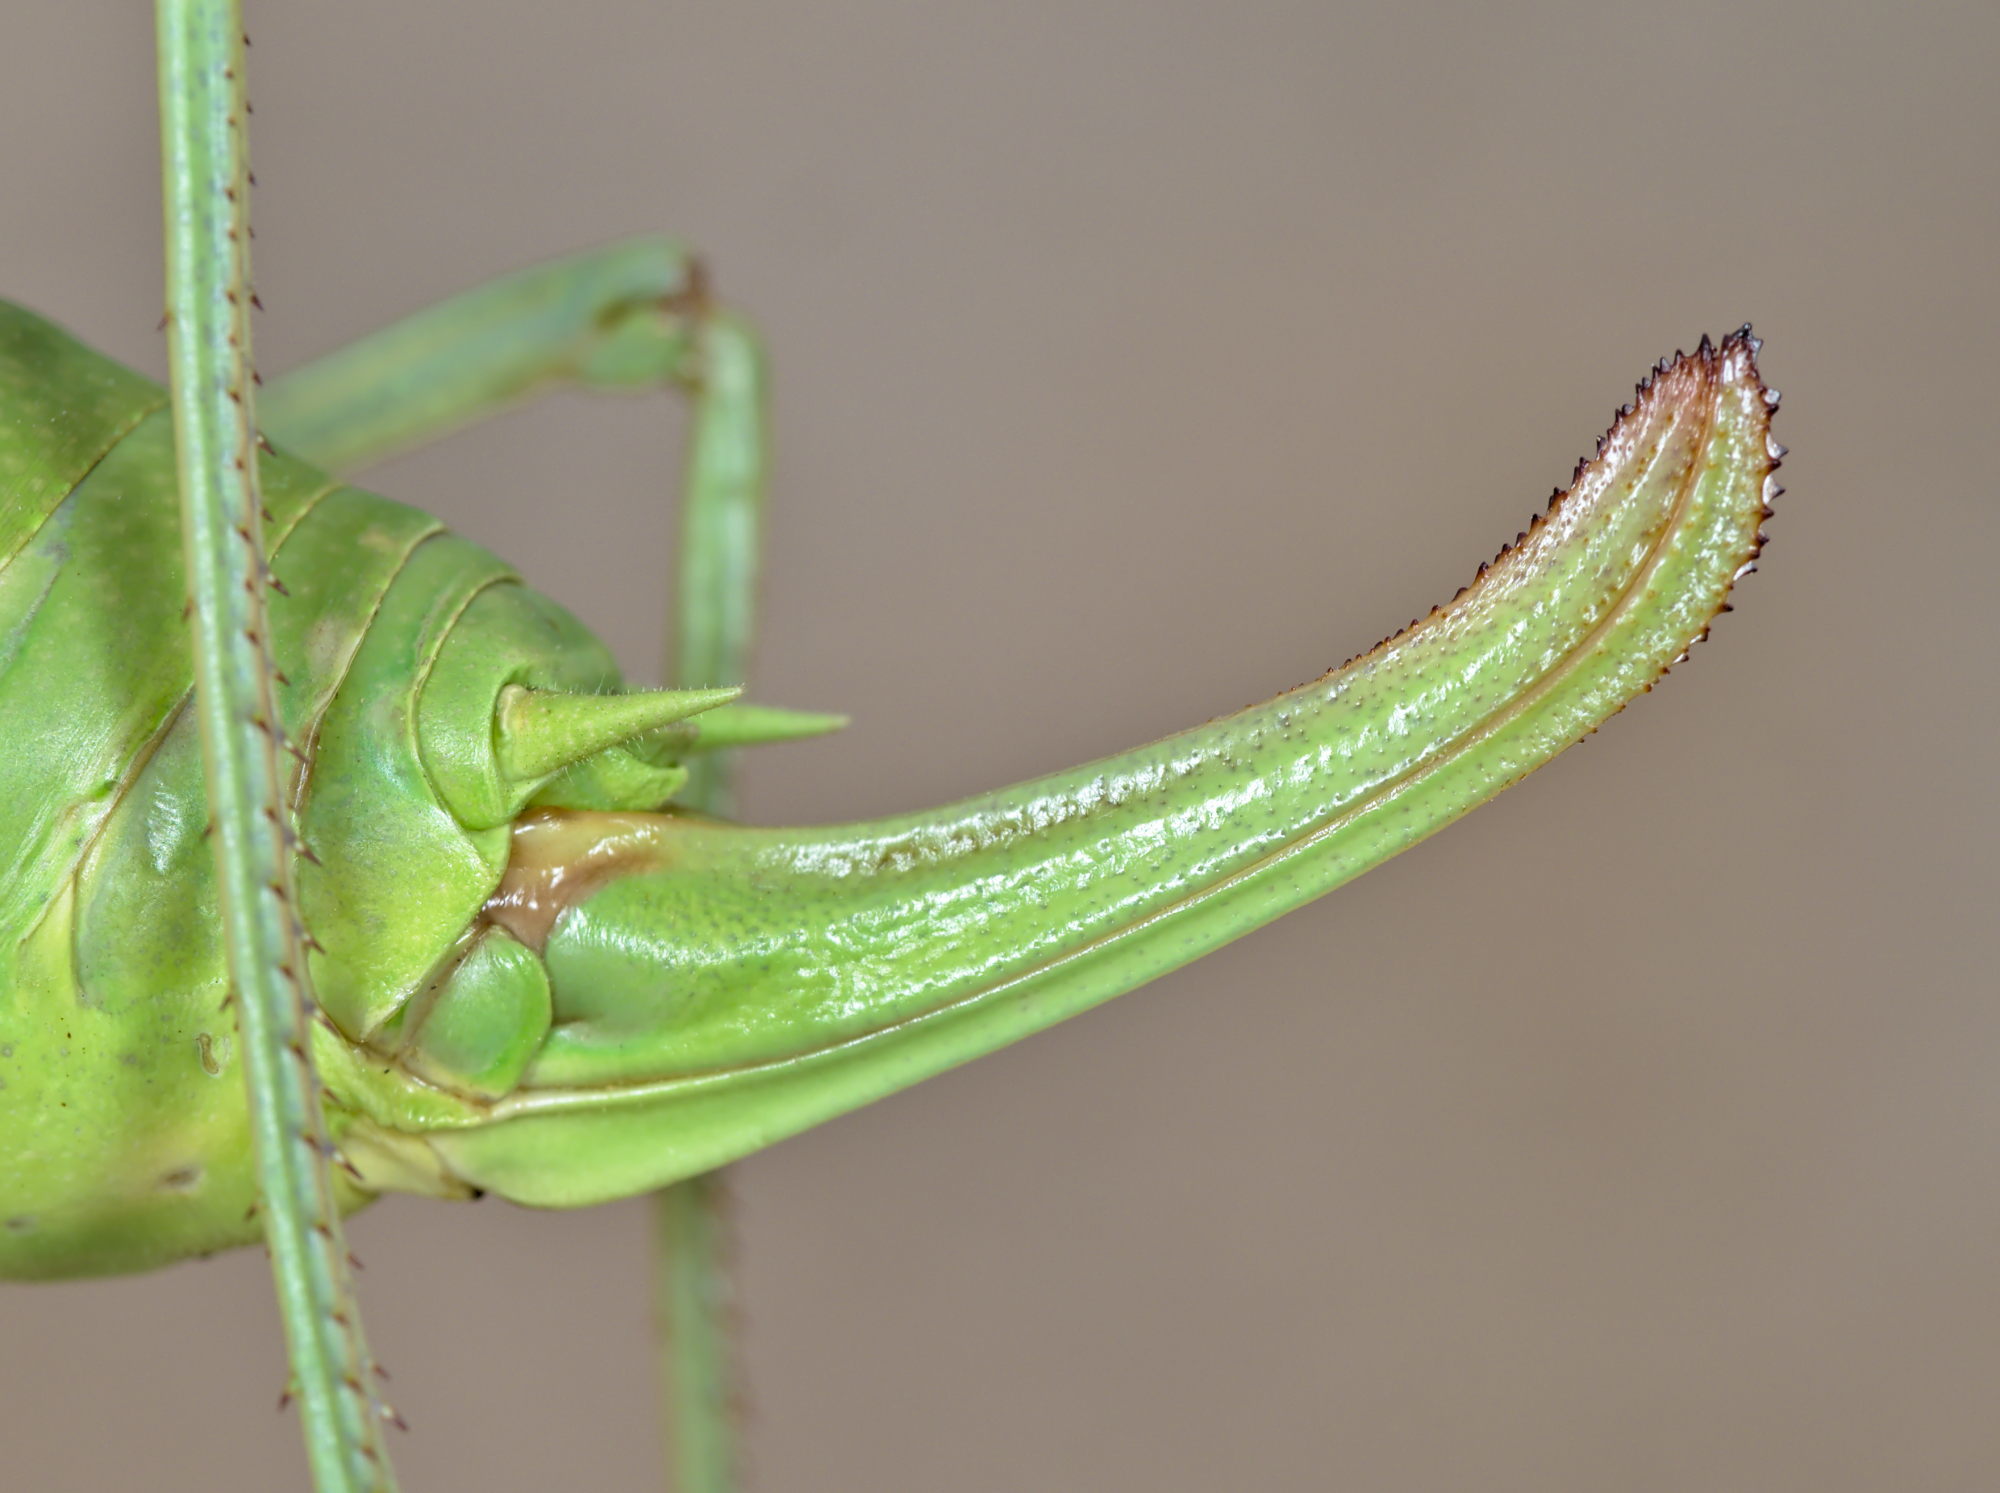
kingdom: Animalia
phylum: Arthropoda
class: Insecta
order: Orthoptera
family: Tettigoniidae
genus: Polysarcus
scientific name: Polysarcus denticauda
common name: Large saw-tailed bush-cricket
